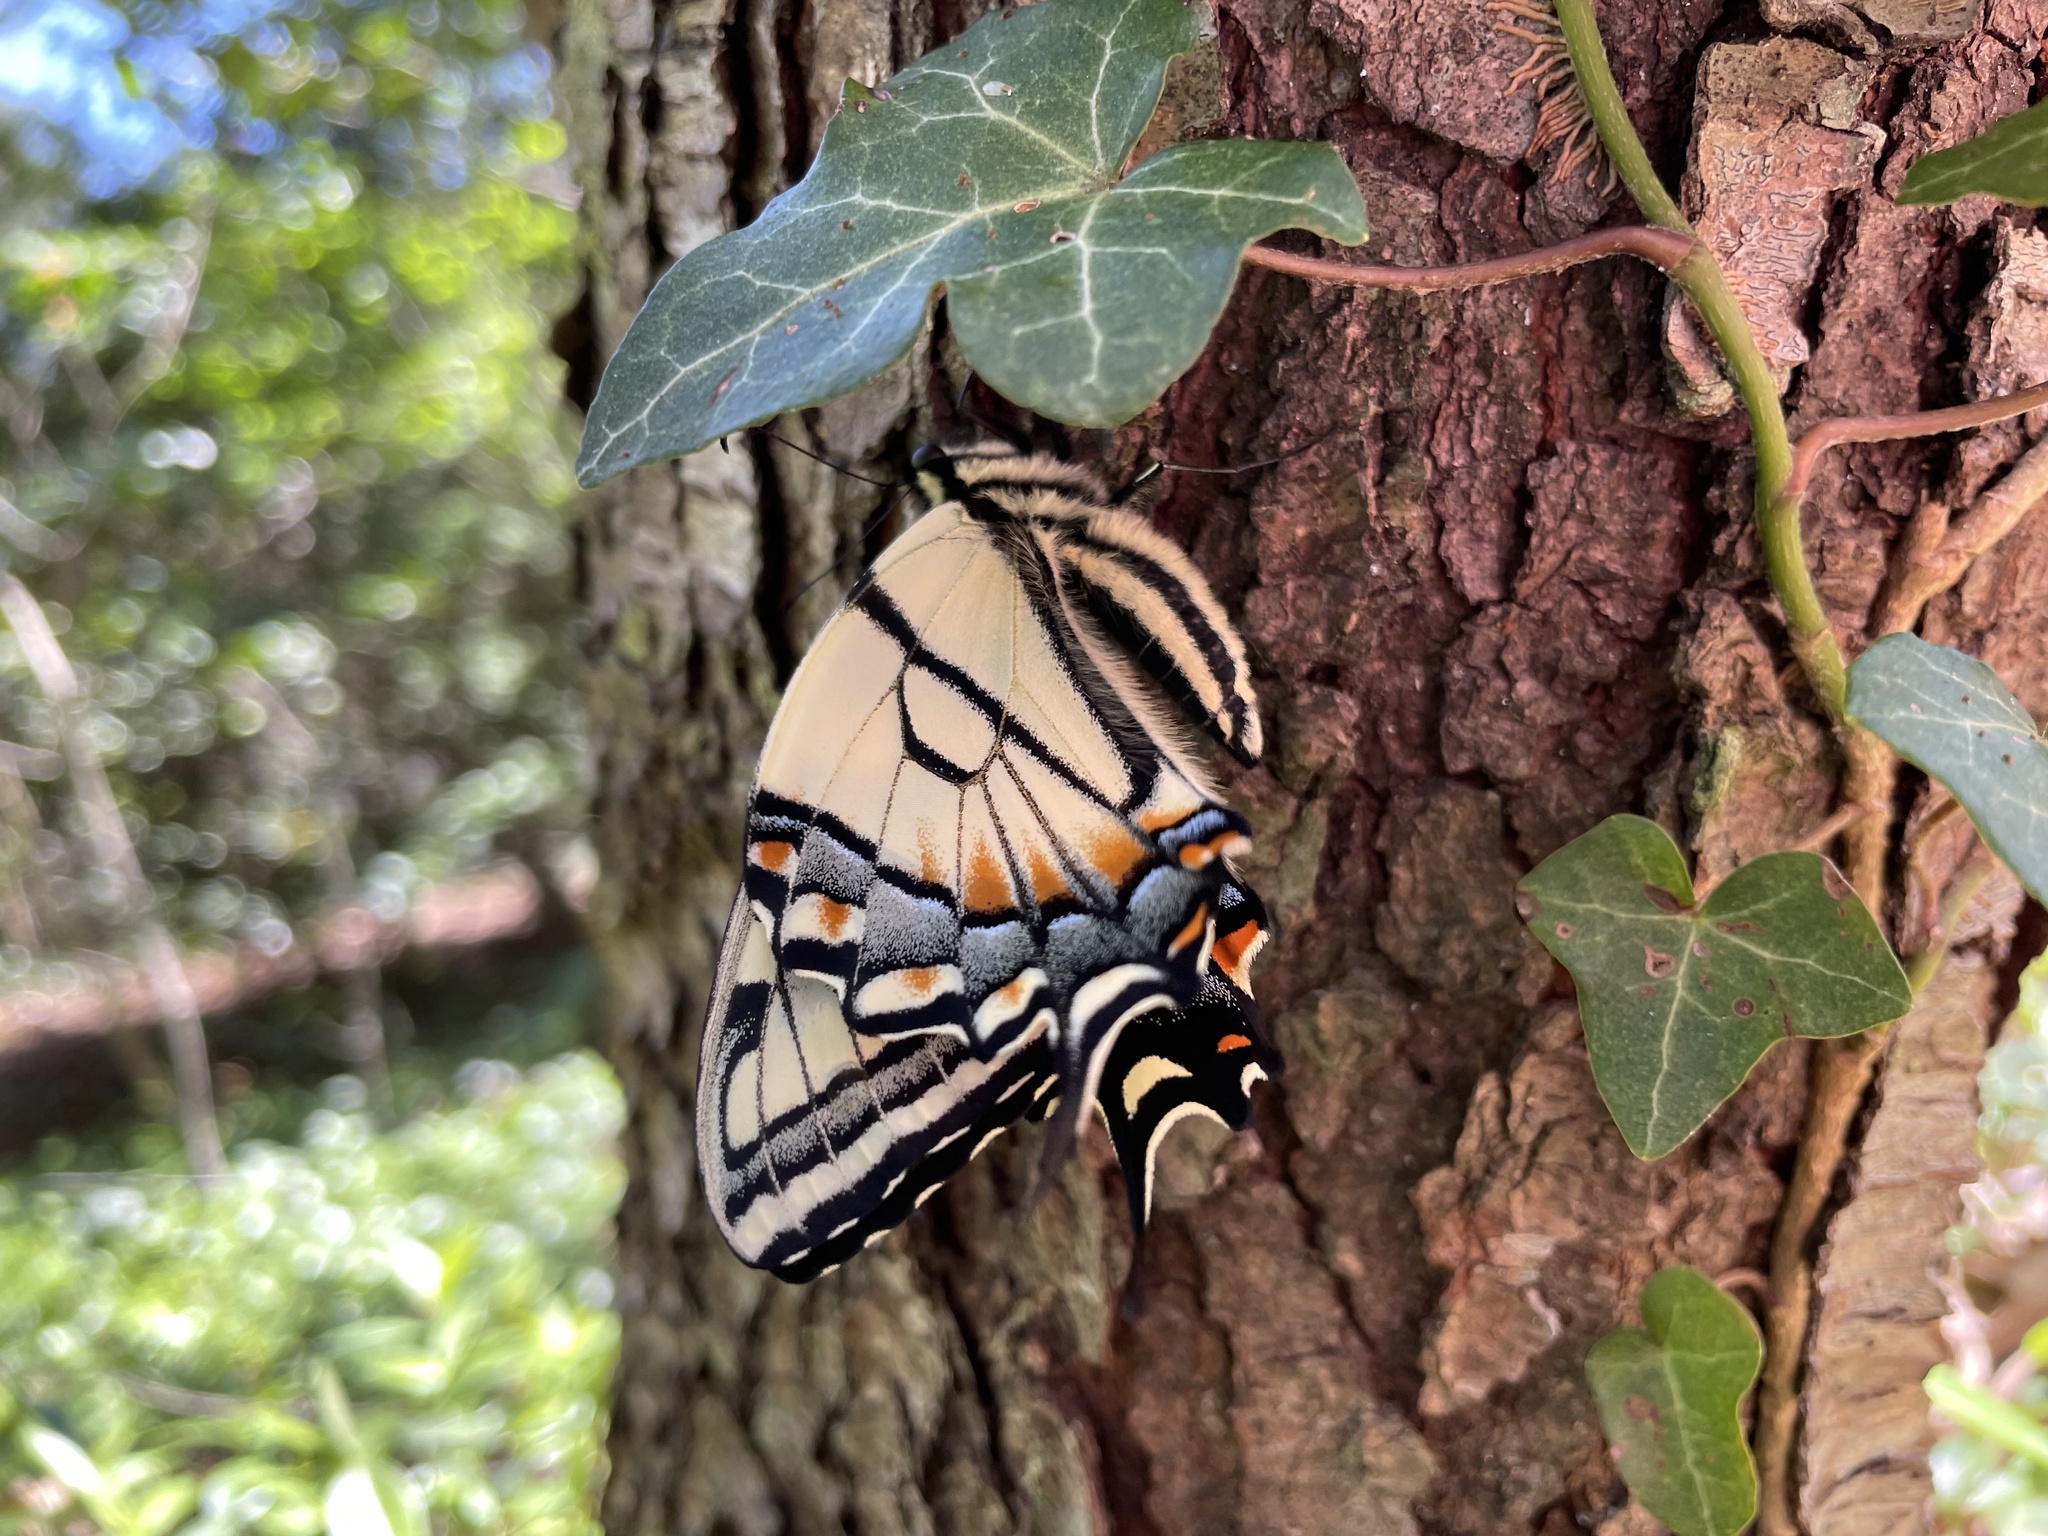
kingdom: Animalia
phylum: Arthropoda
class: Insecta
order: Lepidoptera
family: Papilionidae
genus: Papilio
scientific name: Papilio appalachiensis
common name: Appalachian tiger swallowtail
